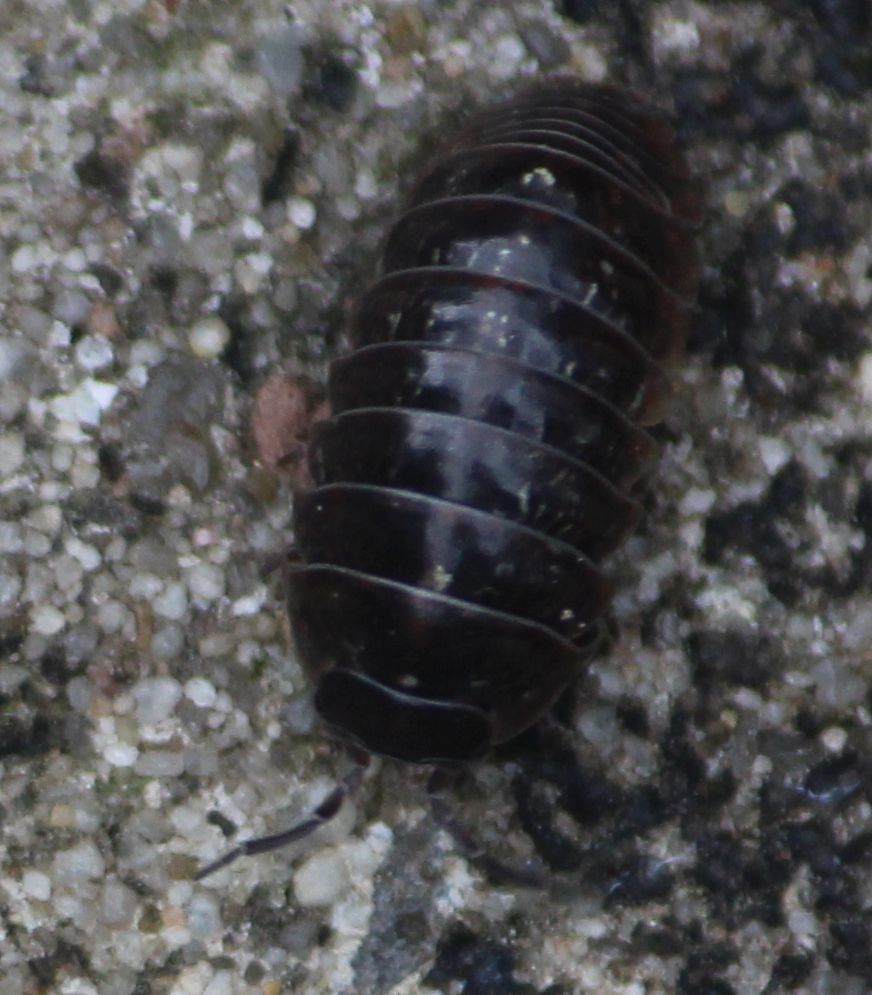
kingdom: Animalia
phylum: Arthropoda
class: Malacostraca
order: Isopoda
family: Armadillidiidae
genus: Armadillidium
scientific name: Armadillidium vulgare
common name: Common pill woodlouse
